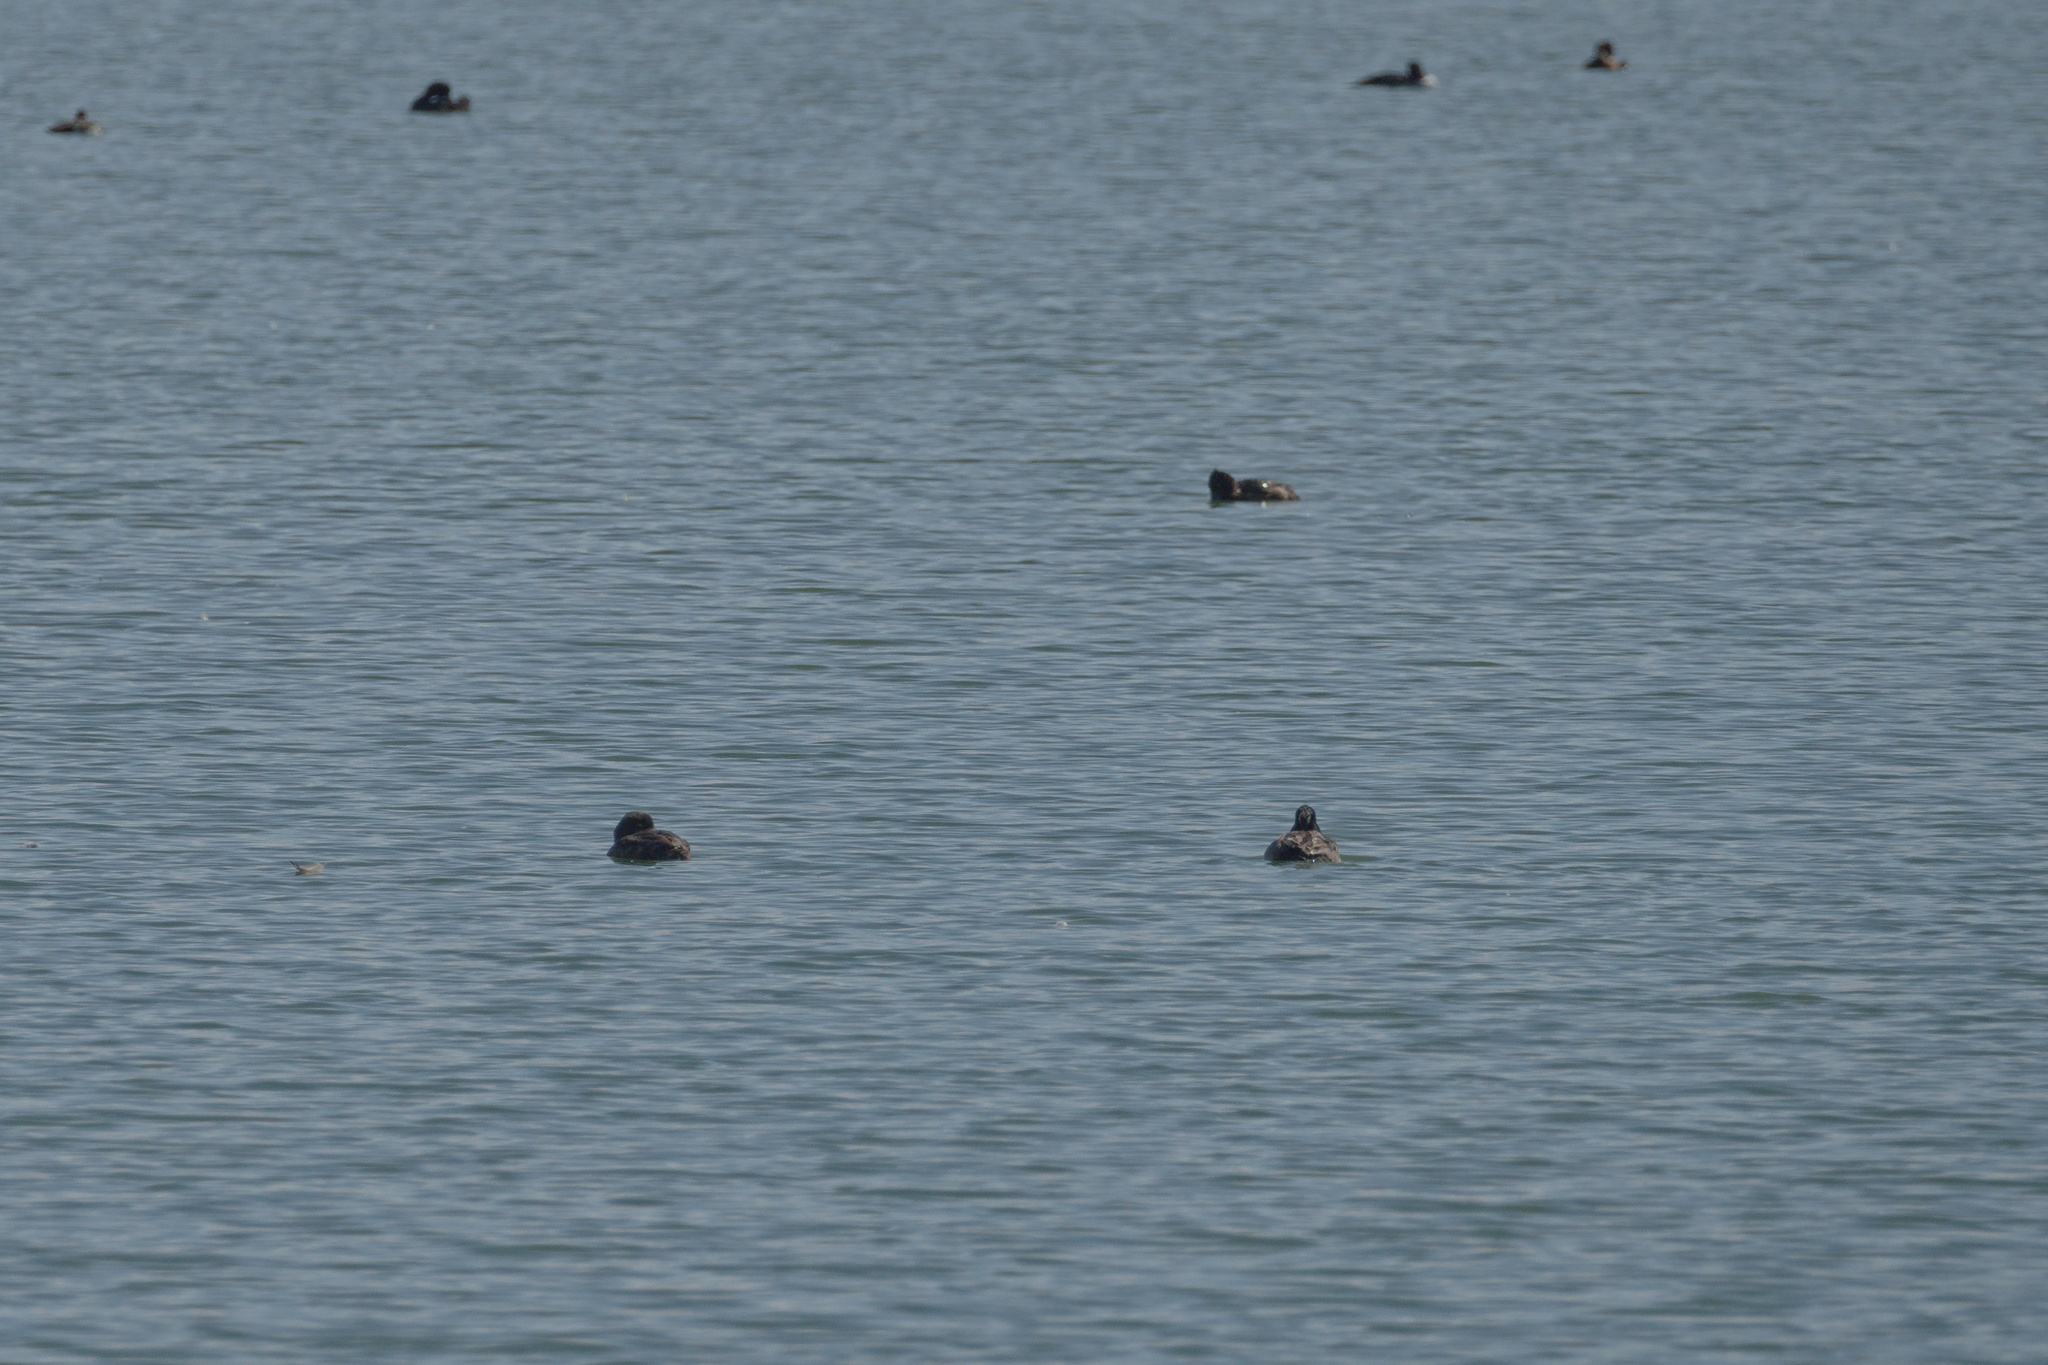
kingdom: Animalia
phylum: Chordata
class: Aves
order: Anseriformes
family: Anatidae
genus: Aythya
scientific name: Aythya fuligula
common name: Tufted duck
